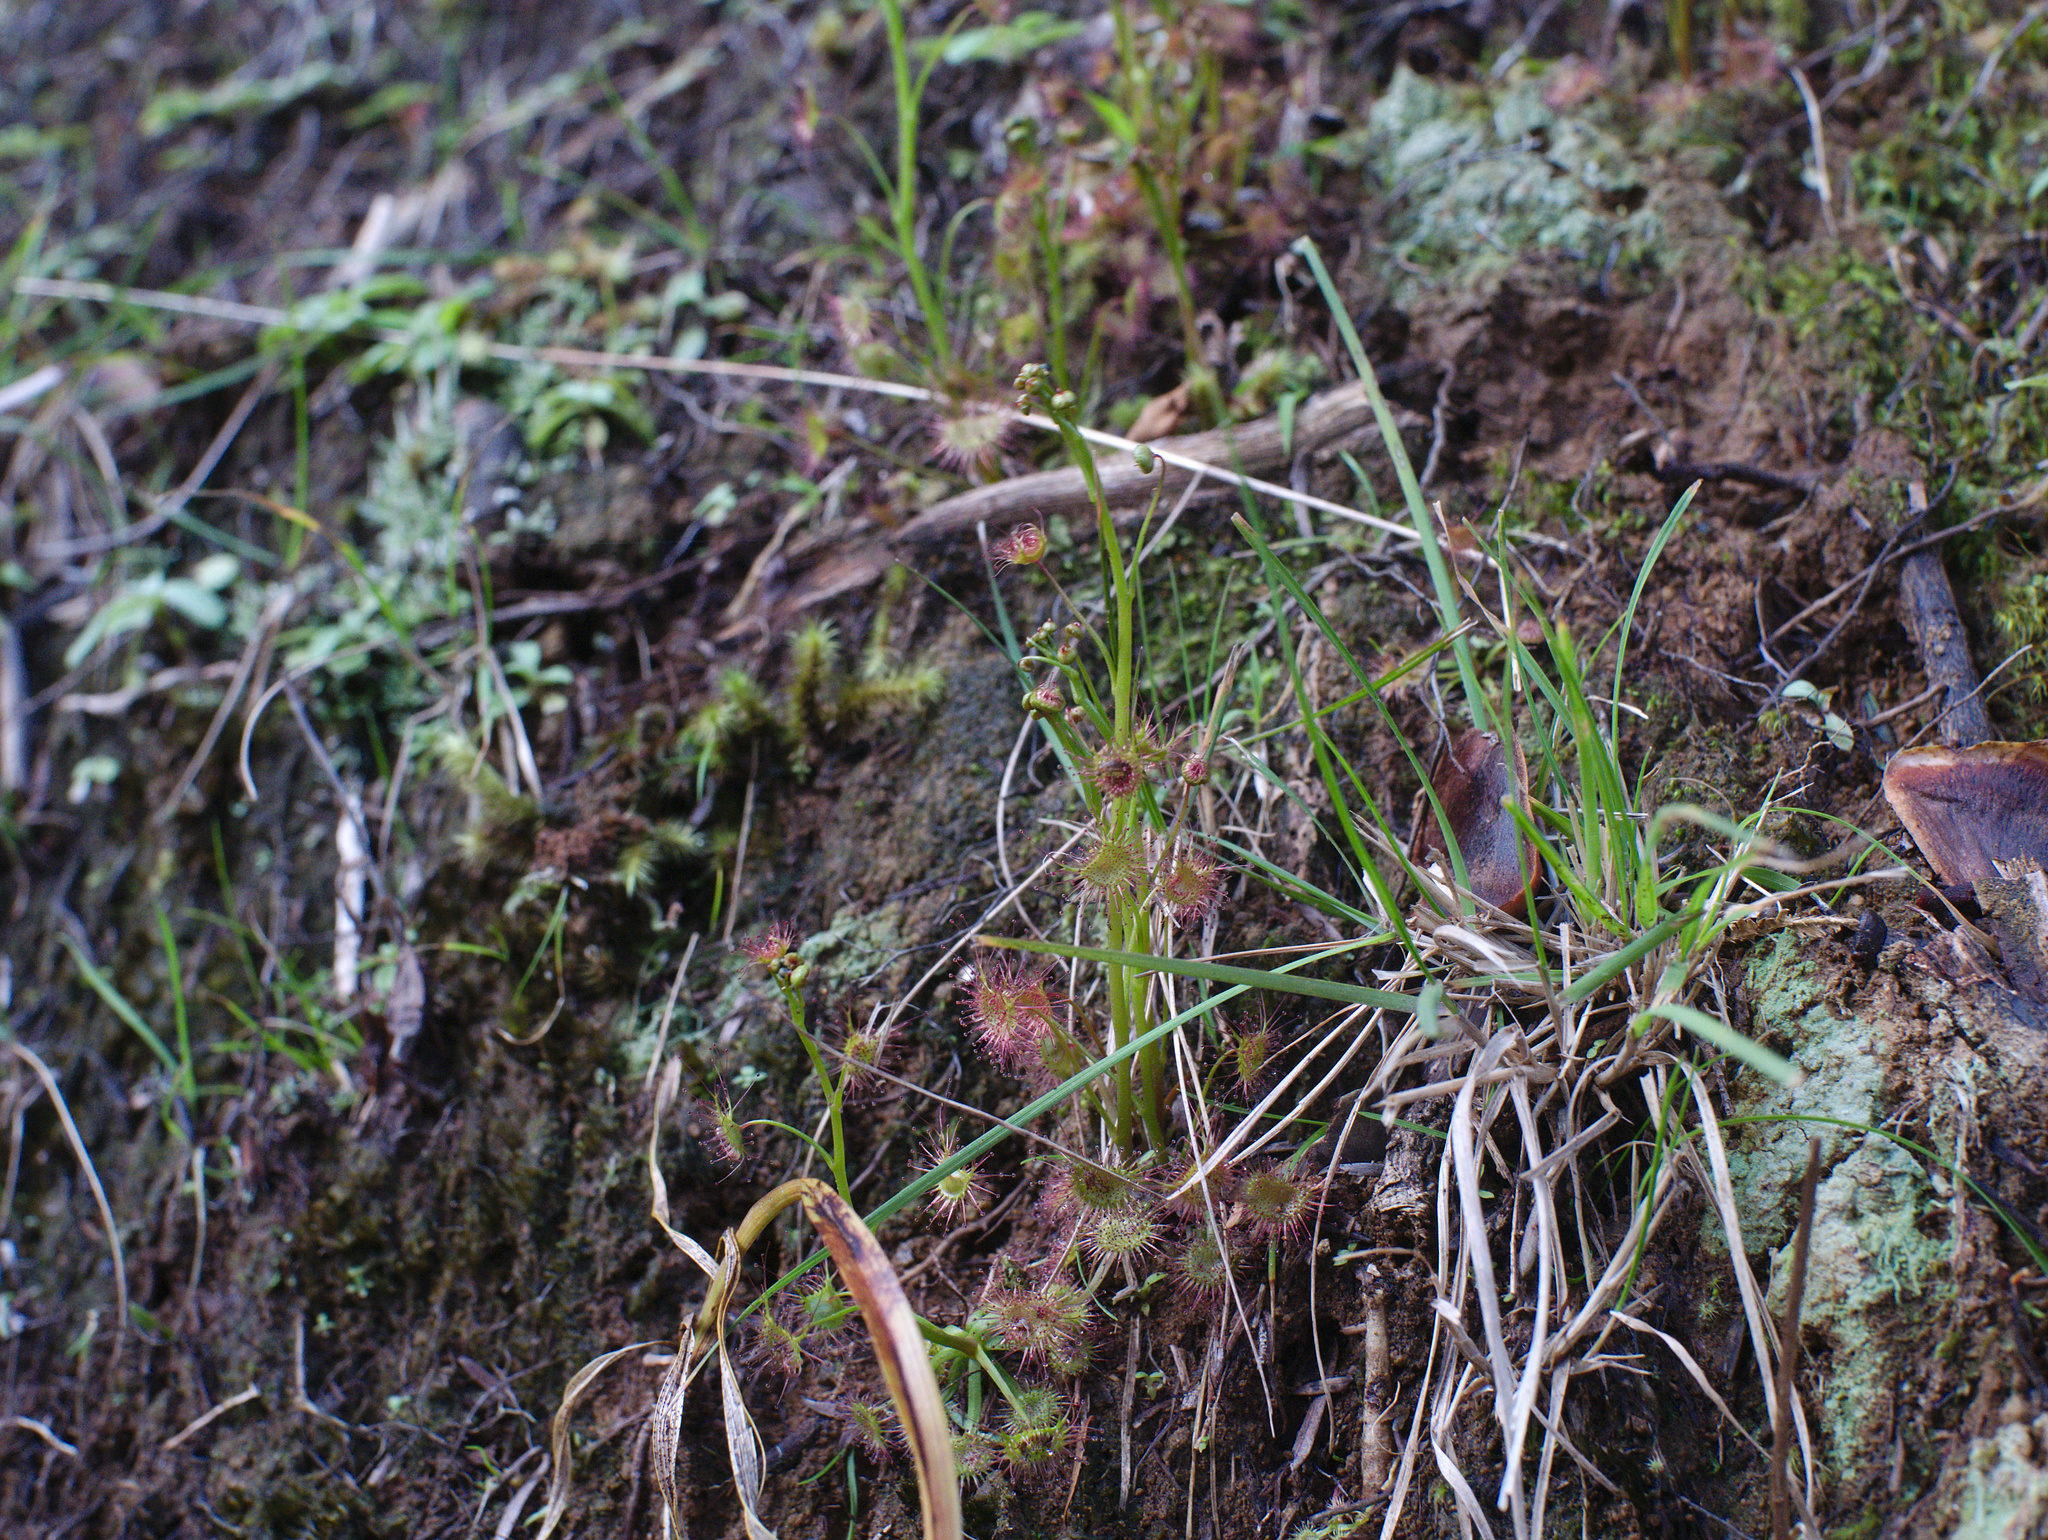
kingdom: Plantae
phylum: Tracheophyta
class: Magnoliopsida
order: Caryophyllales
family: Droseraceae
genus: Drosera
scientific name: Drosera peltata
